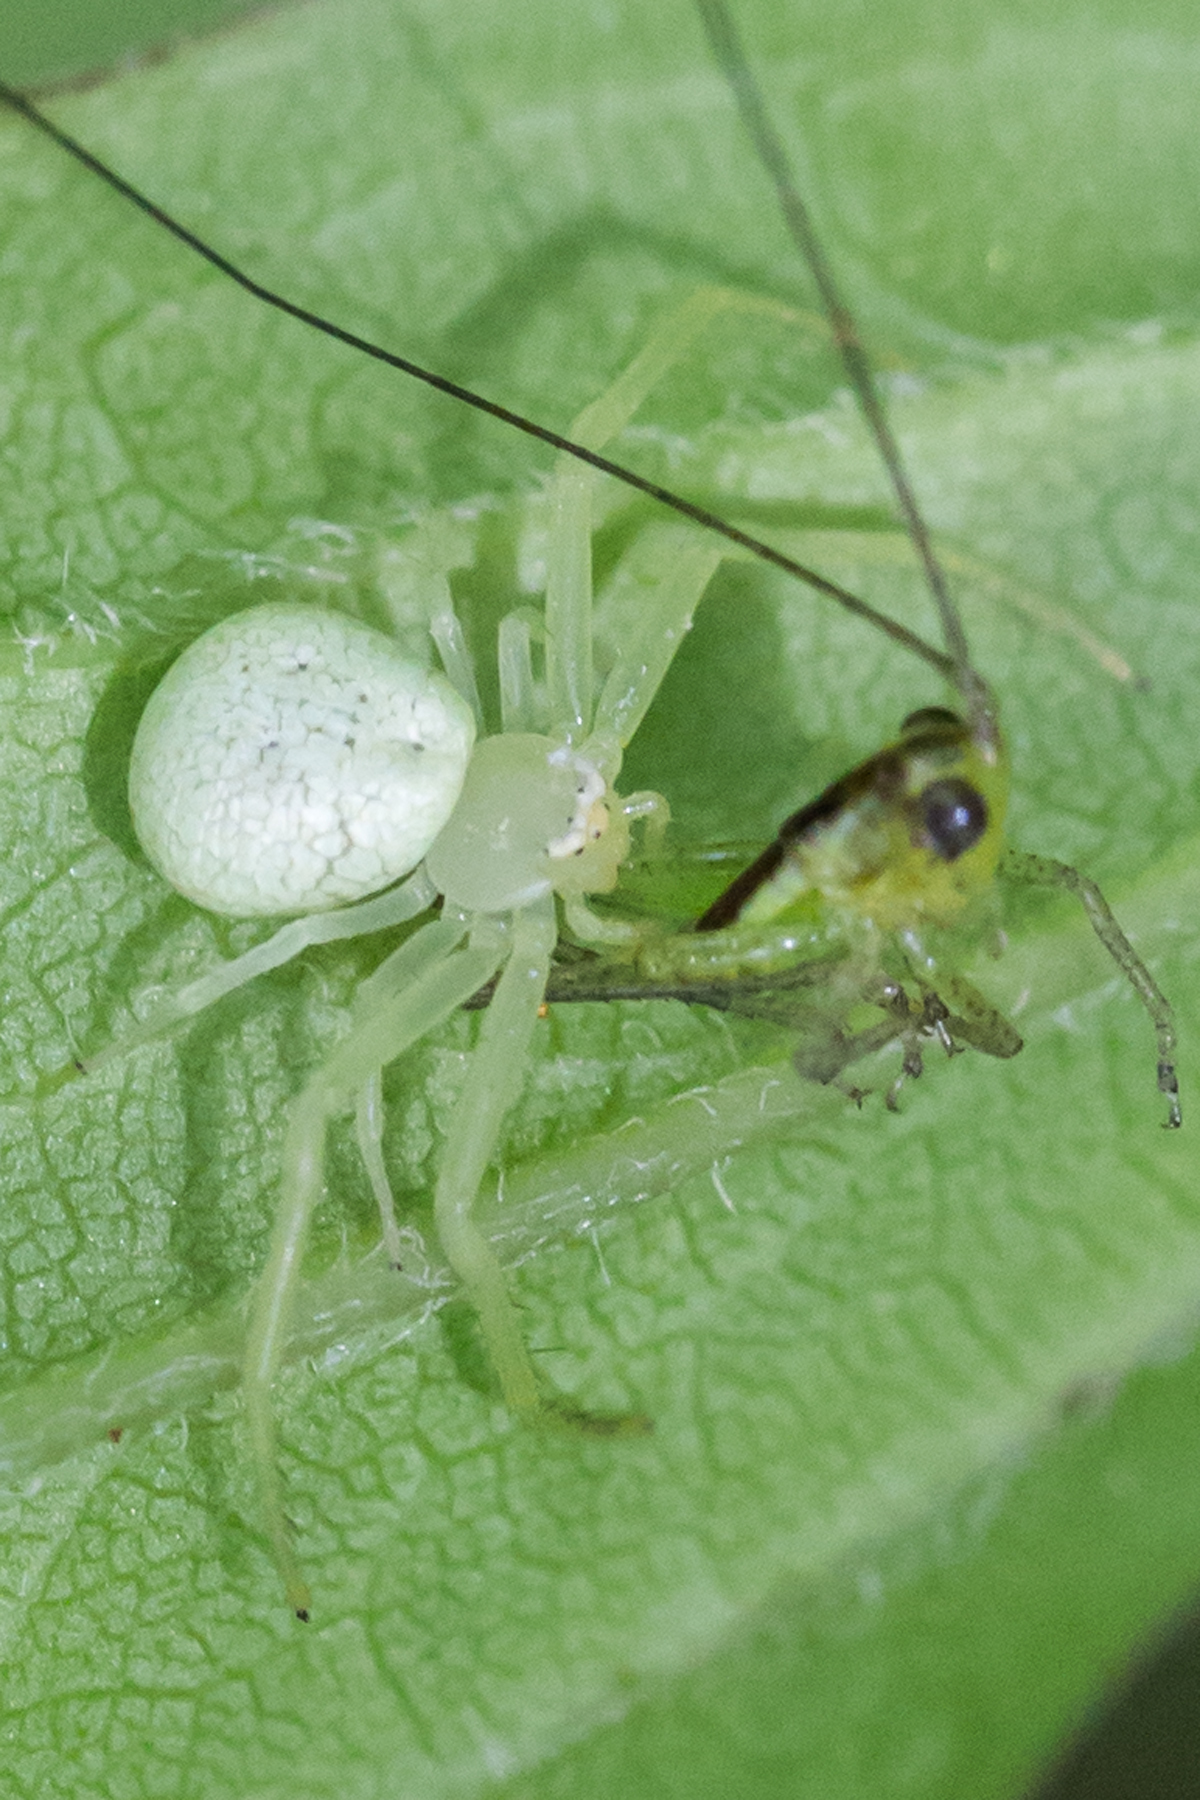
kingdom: Animalia
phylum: Arthropoda
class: Arachnida
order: Araneae
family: Thomisidae
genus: Misumessus
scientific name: Misumessus oblongus
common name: American green crab spider
